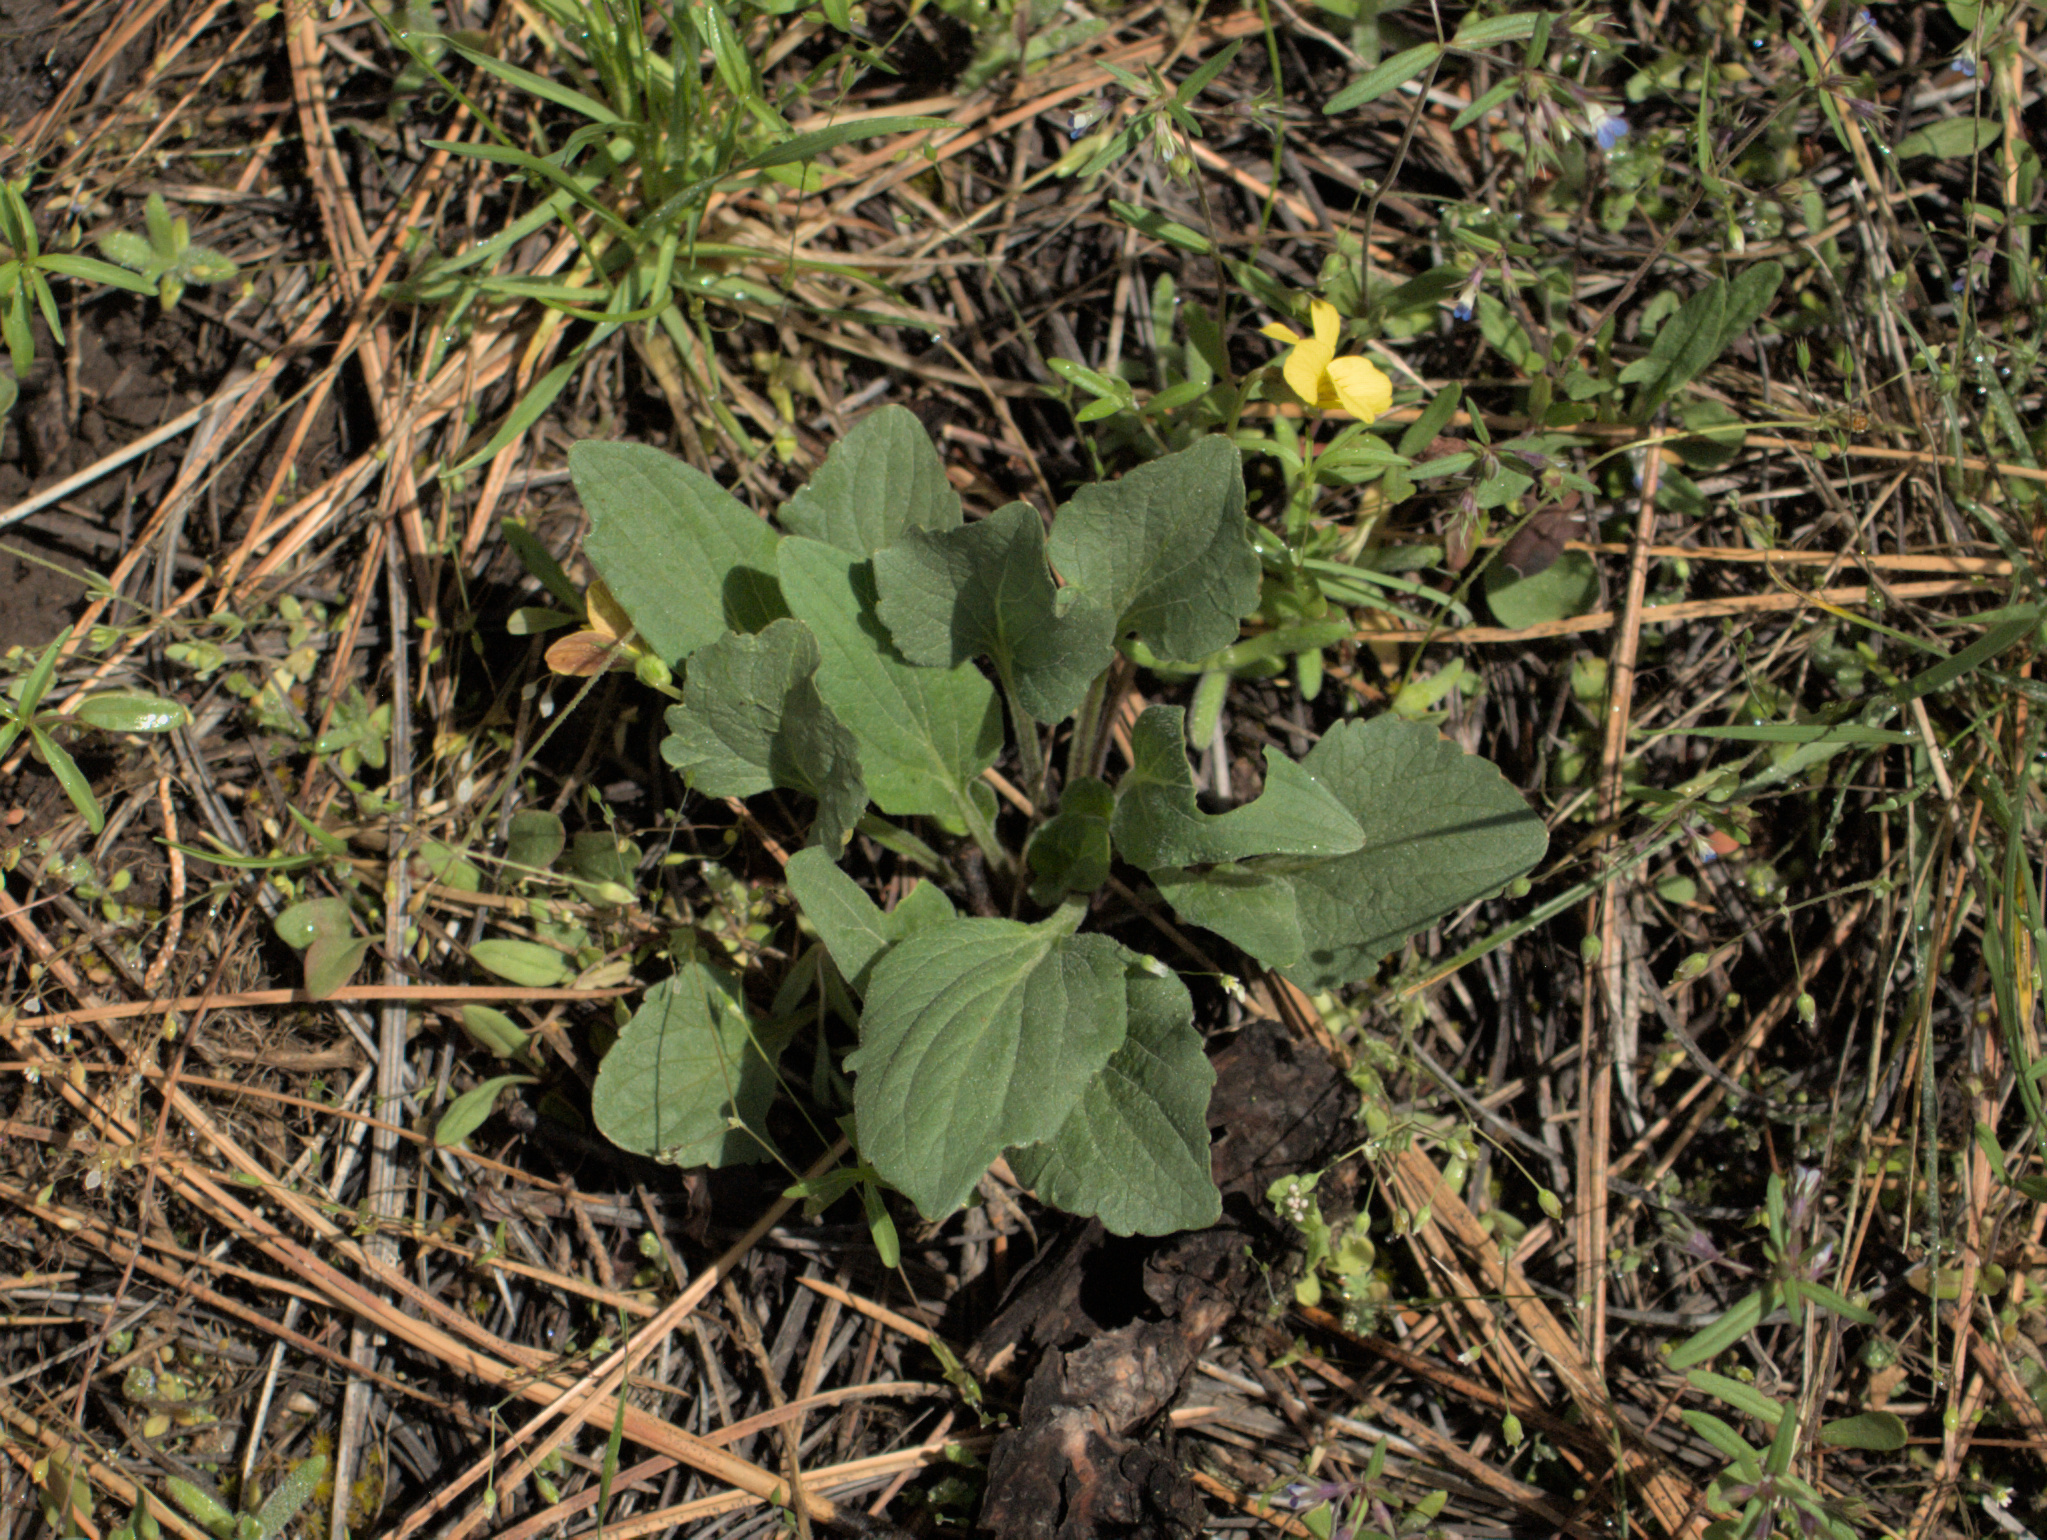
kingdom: Plantae
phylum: Tracheophyta
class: Magnoliopsida
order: Malpighiales
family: Violaceae
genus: Viola
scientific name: Viola praemorsa
